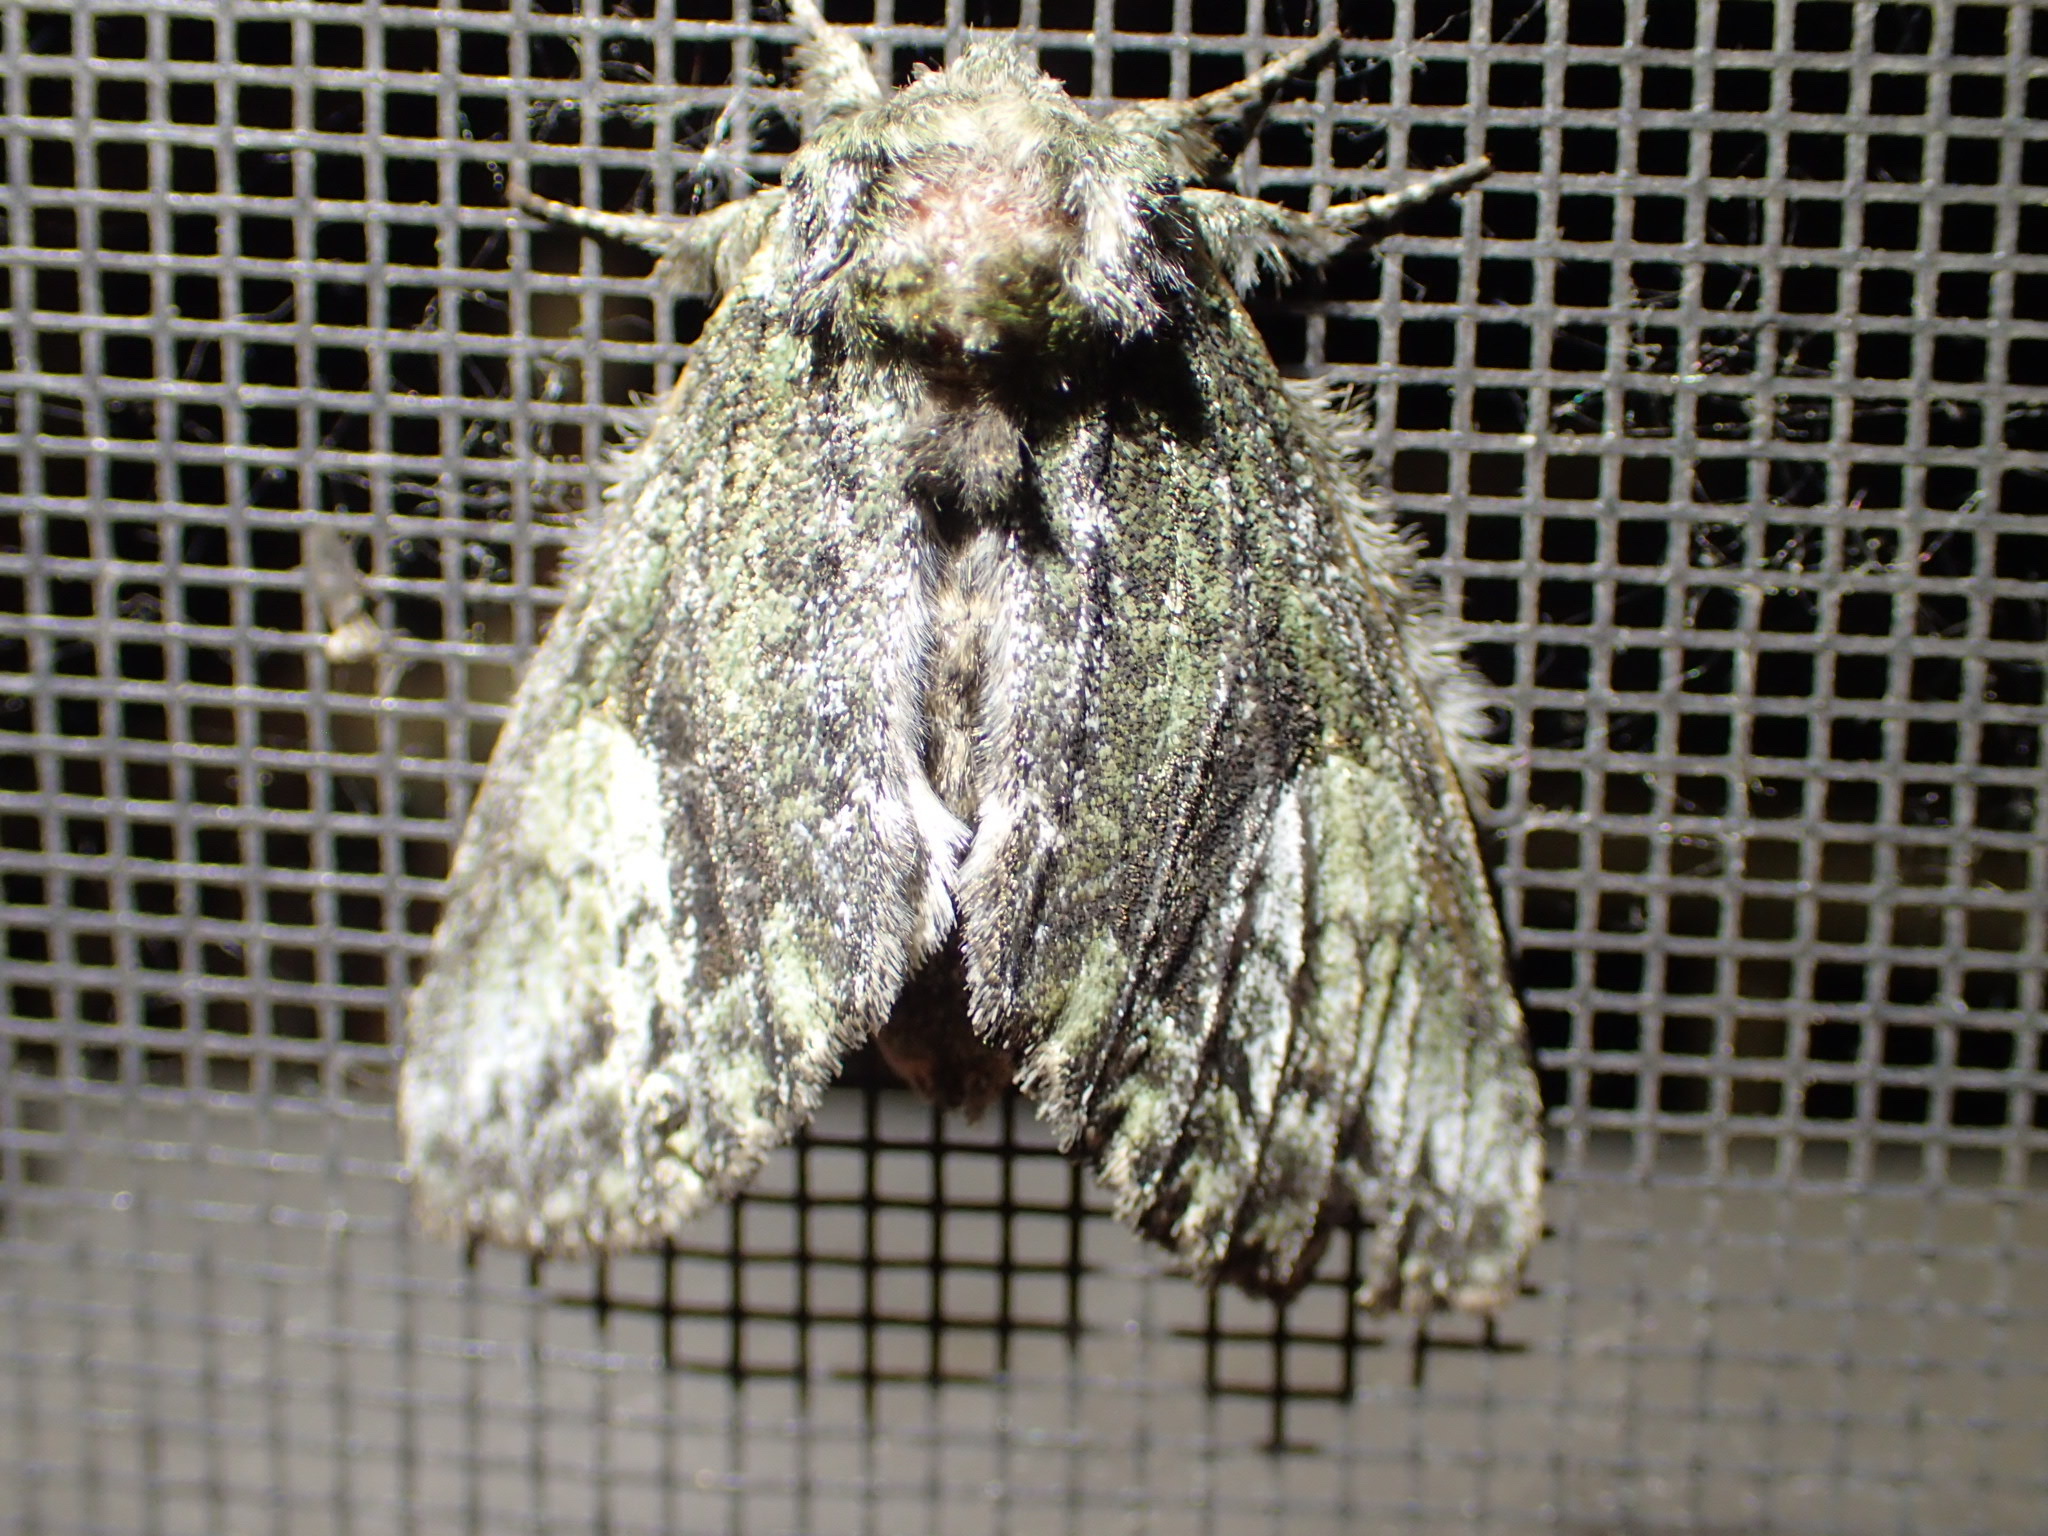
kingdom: Animalia
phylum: Arthropoda
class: Insecta
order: Lepidoptera
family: Notodontidae
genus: Heterocampa
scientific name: Heterocampa
